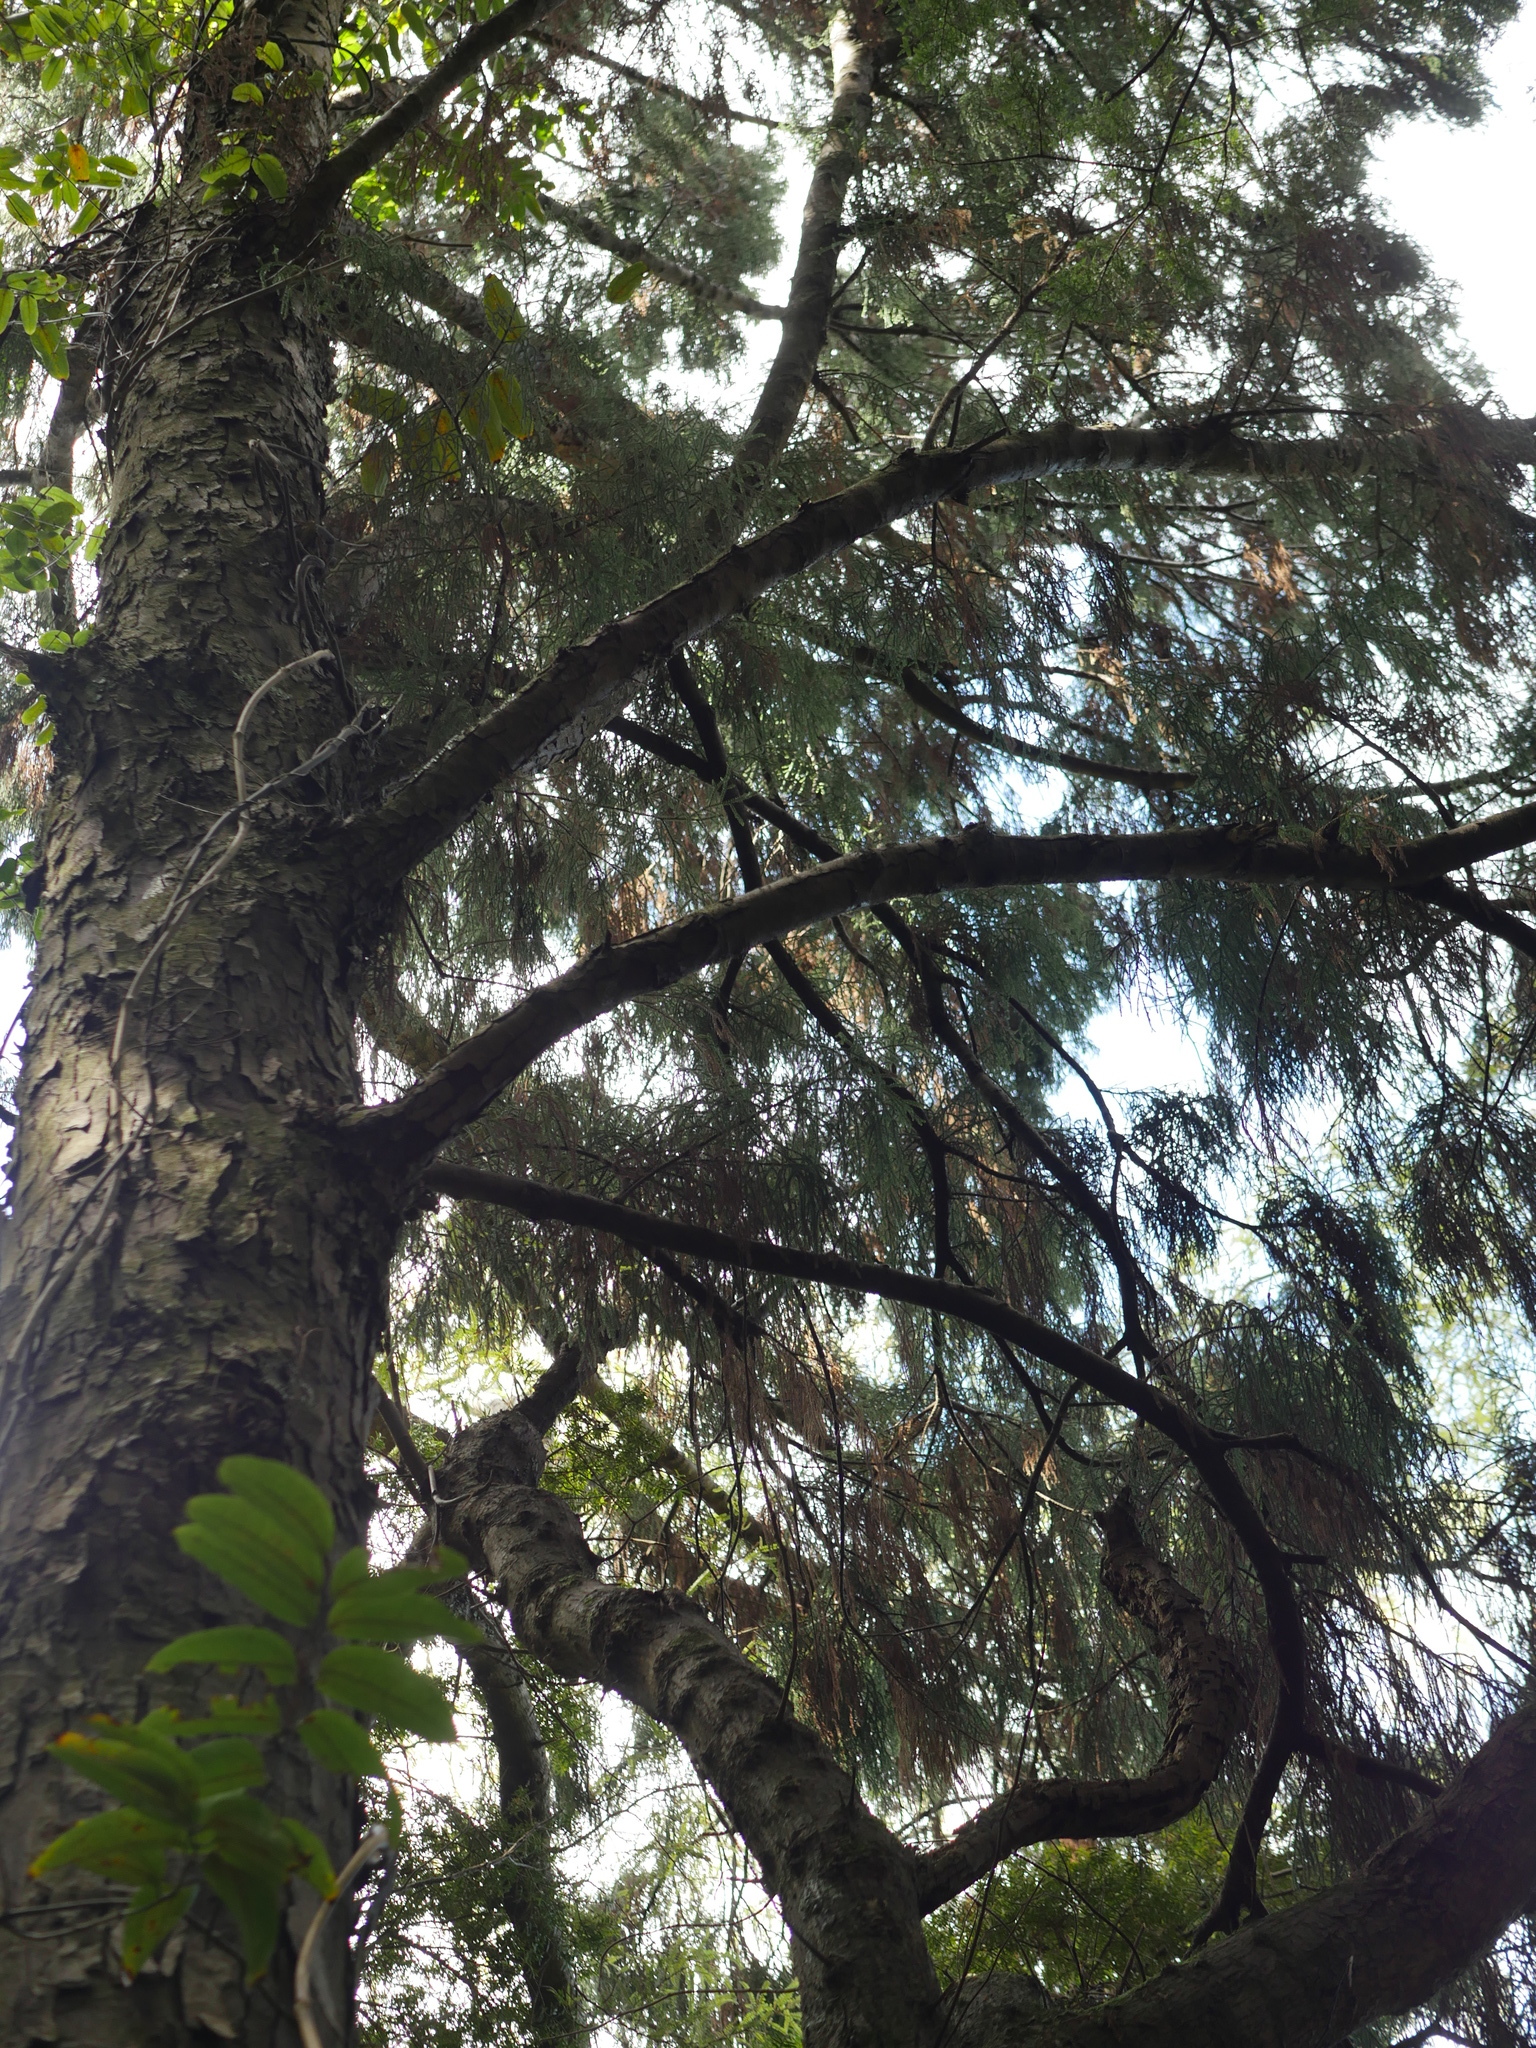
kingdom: Plantae
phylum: Tracheophyta
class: Pinopsida
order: Pinales
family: Podocarpaceae
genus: Dacrydium
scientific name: Dacrydium cupressinum
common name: Red pine
